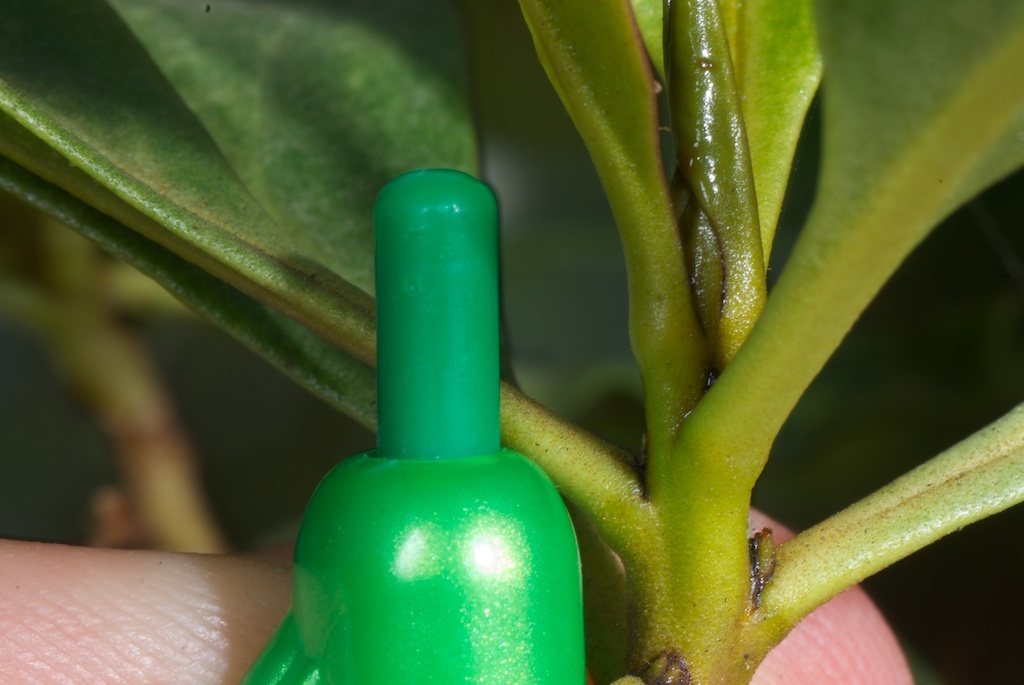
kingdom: Plantae
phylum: Tracheophyta
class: Magnoliopsida
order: Lamiales
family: Scrophulariaceae
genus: Myoporum
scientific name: Myoporum laetum
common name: Ngaio tree
